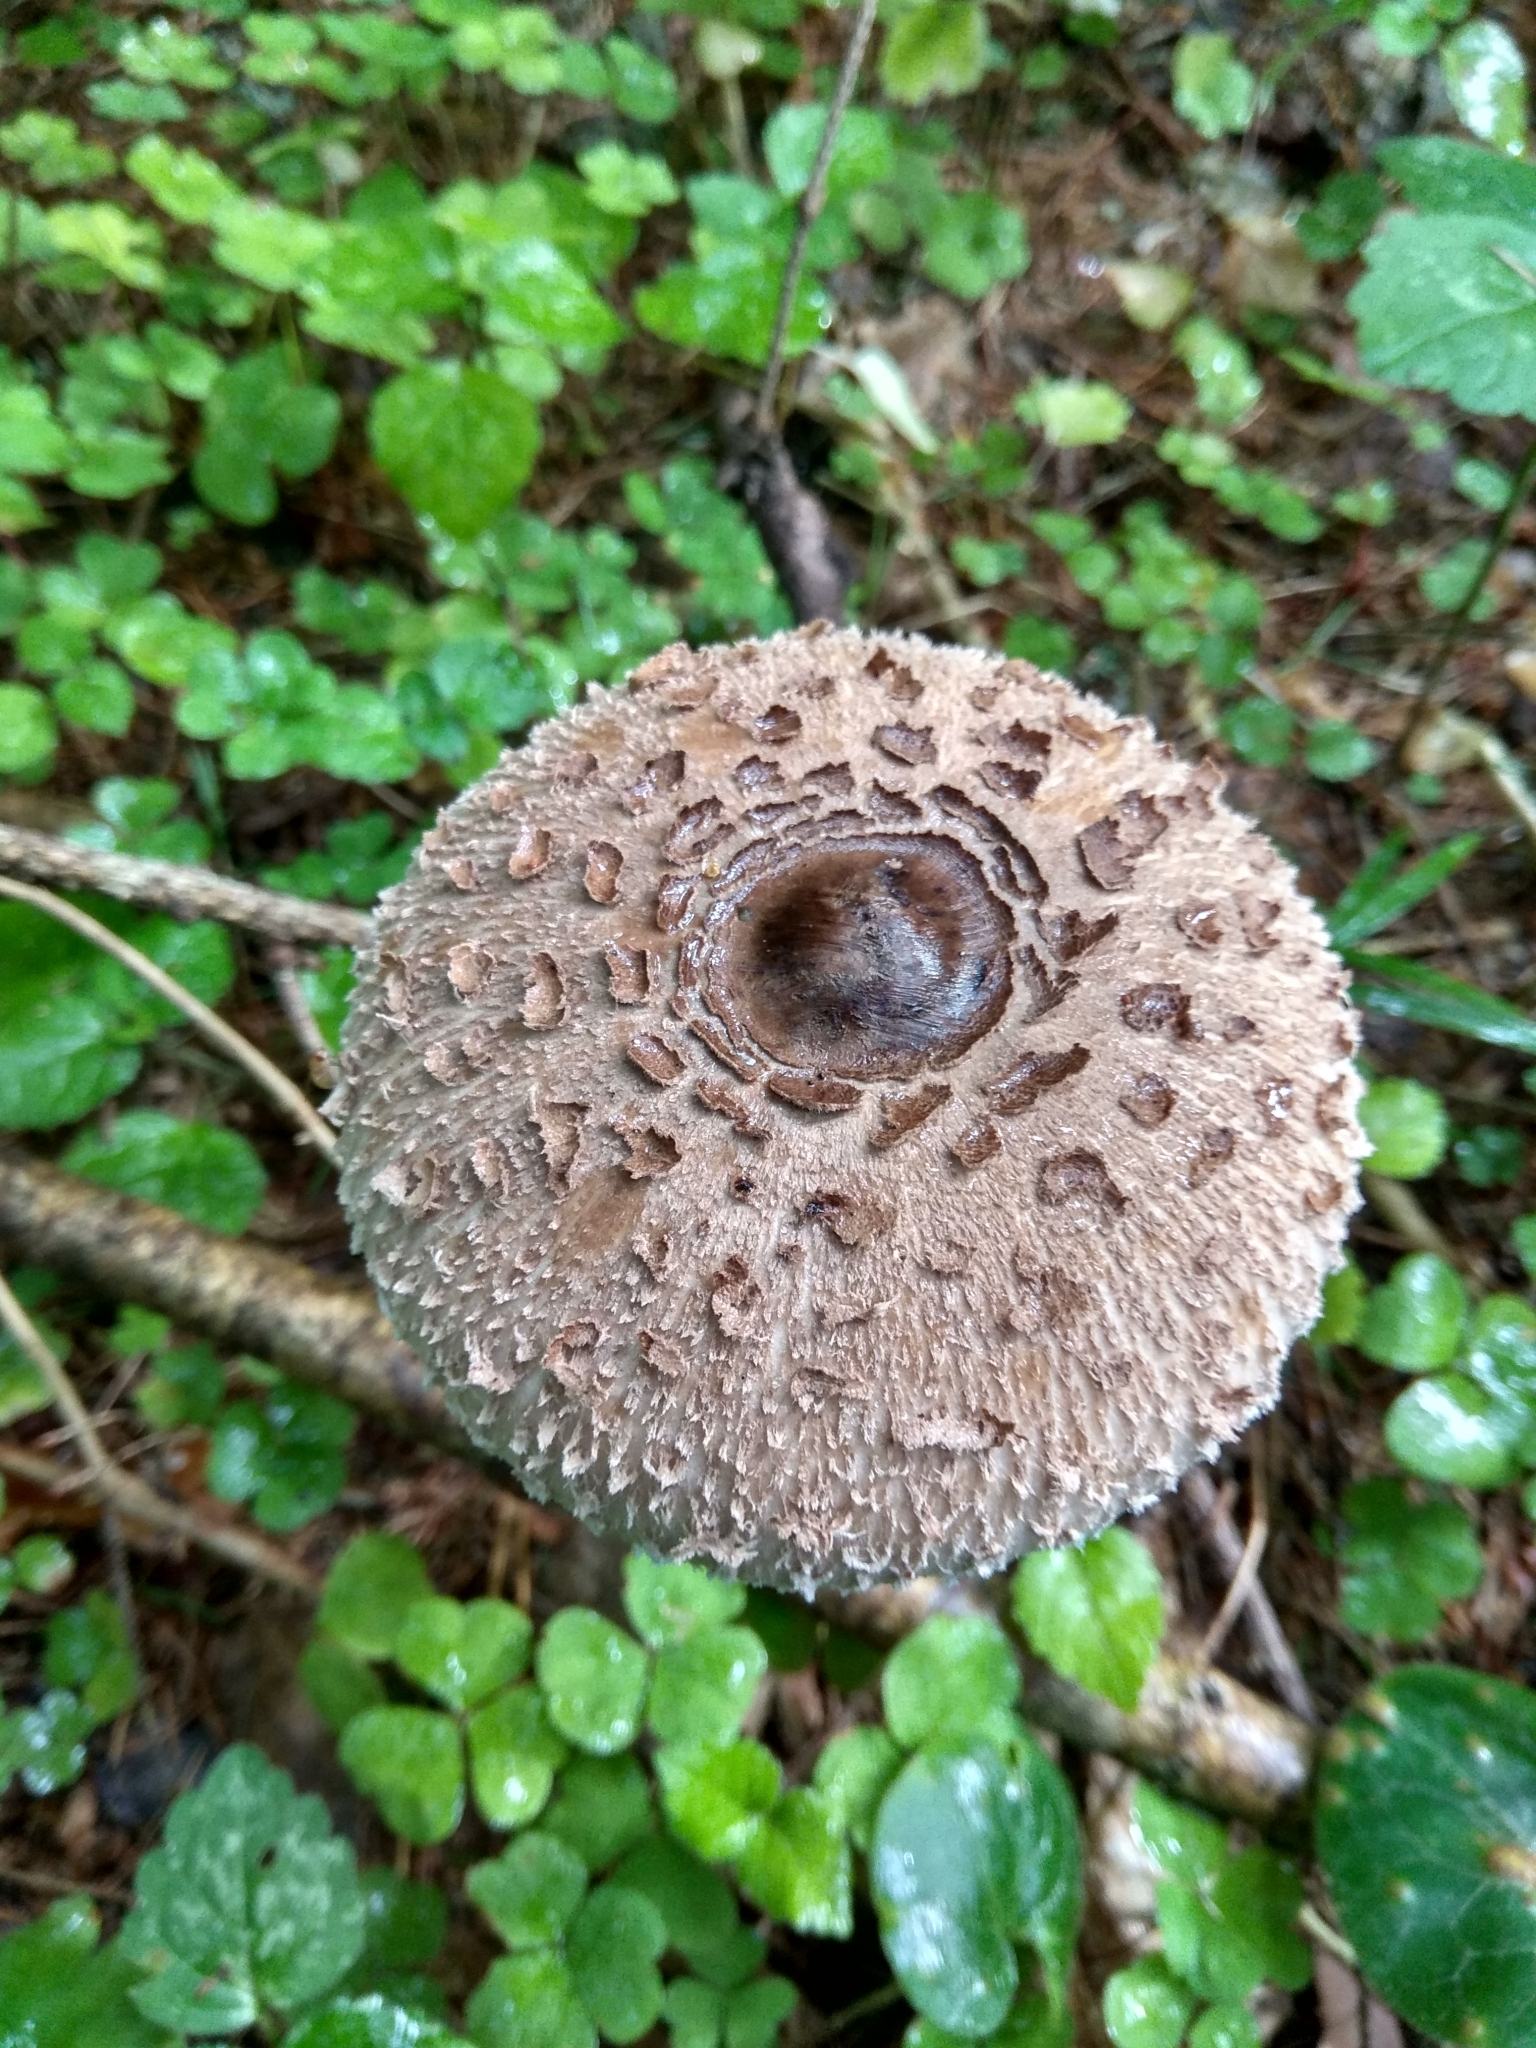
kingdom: Fungi
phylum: Basidiomycota
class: Agaricomycetes
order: Agaricales
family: Agaricaceae
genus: Macrolepiota
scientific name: Macrolepiota procera
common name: Parasol
